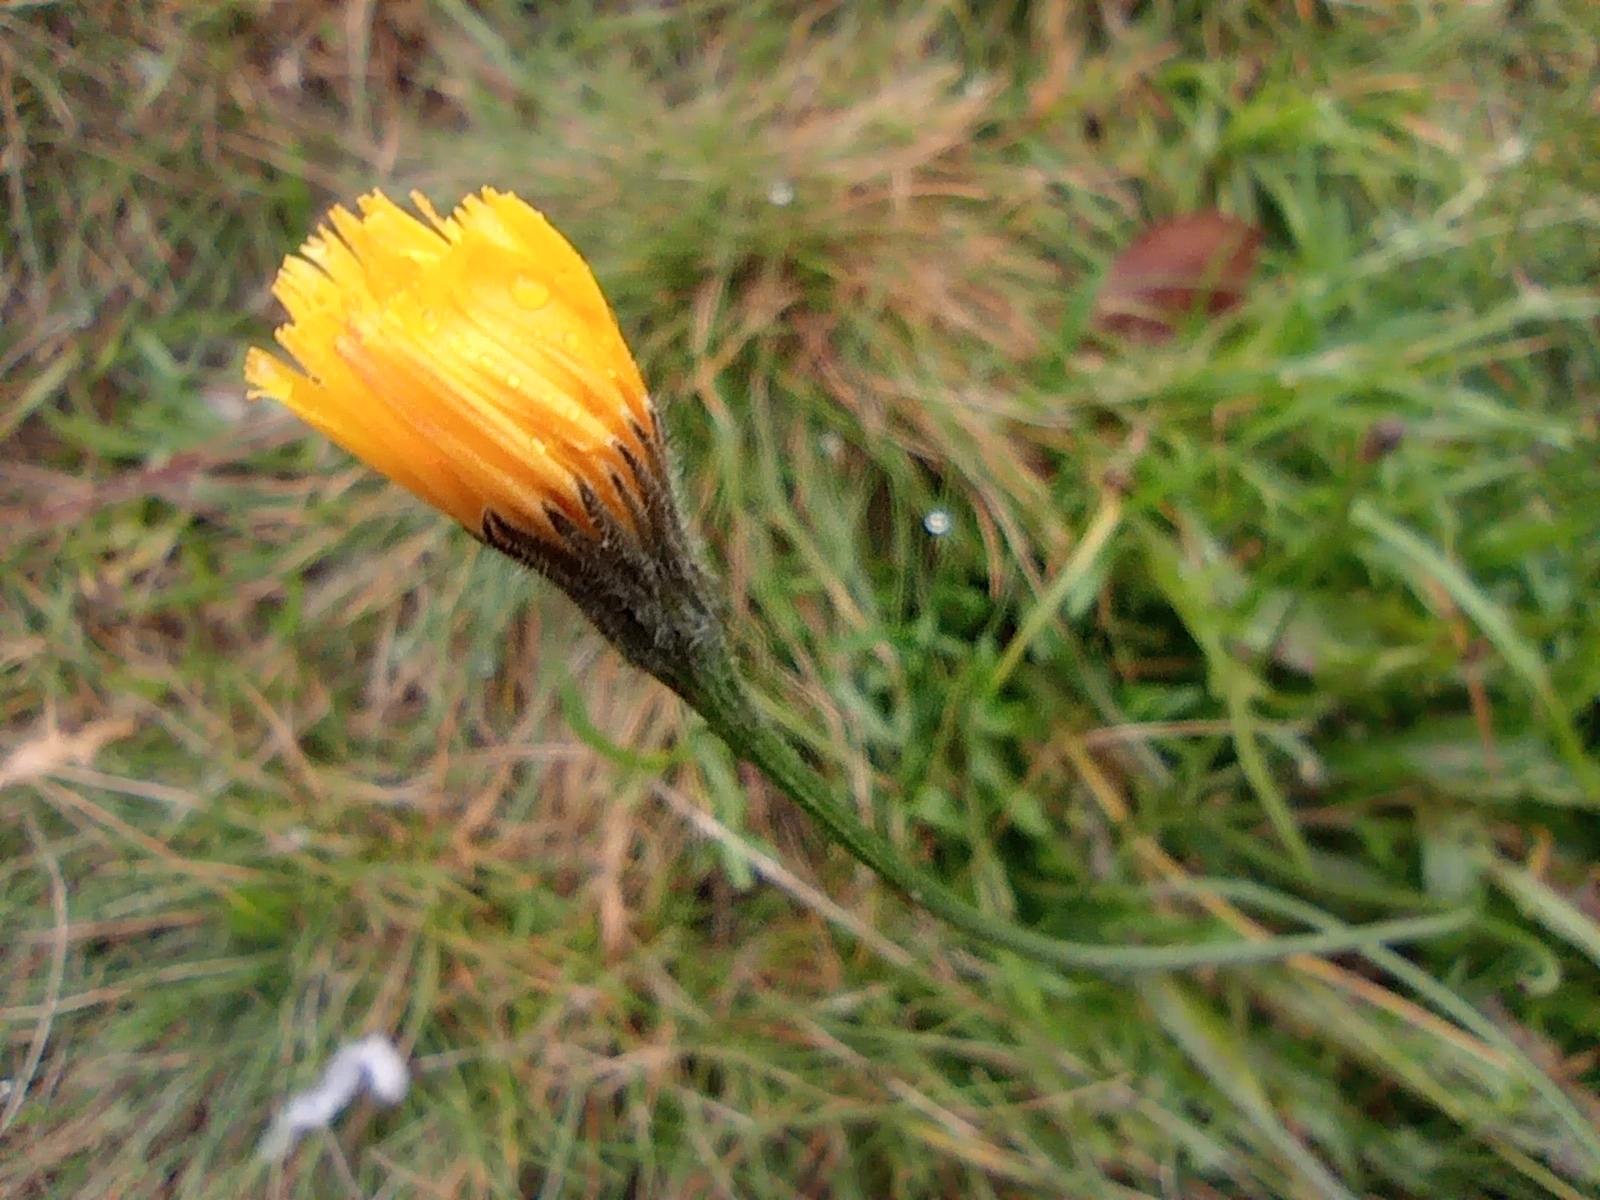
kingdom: Plantae
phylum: Tracheophyta
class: Magnoliopsida
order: Asterales
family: Asteraceae
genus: Scorzoneroides
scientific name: Scorzoneroides autumnalis
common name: Autumn hawkbit
